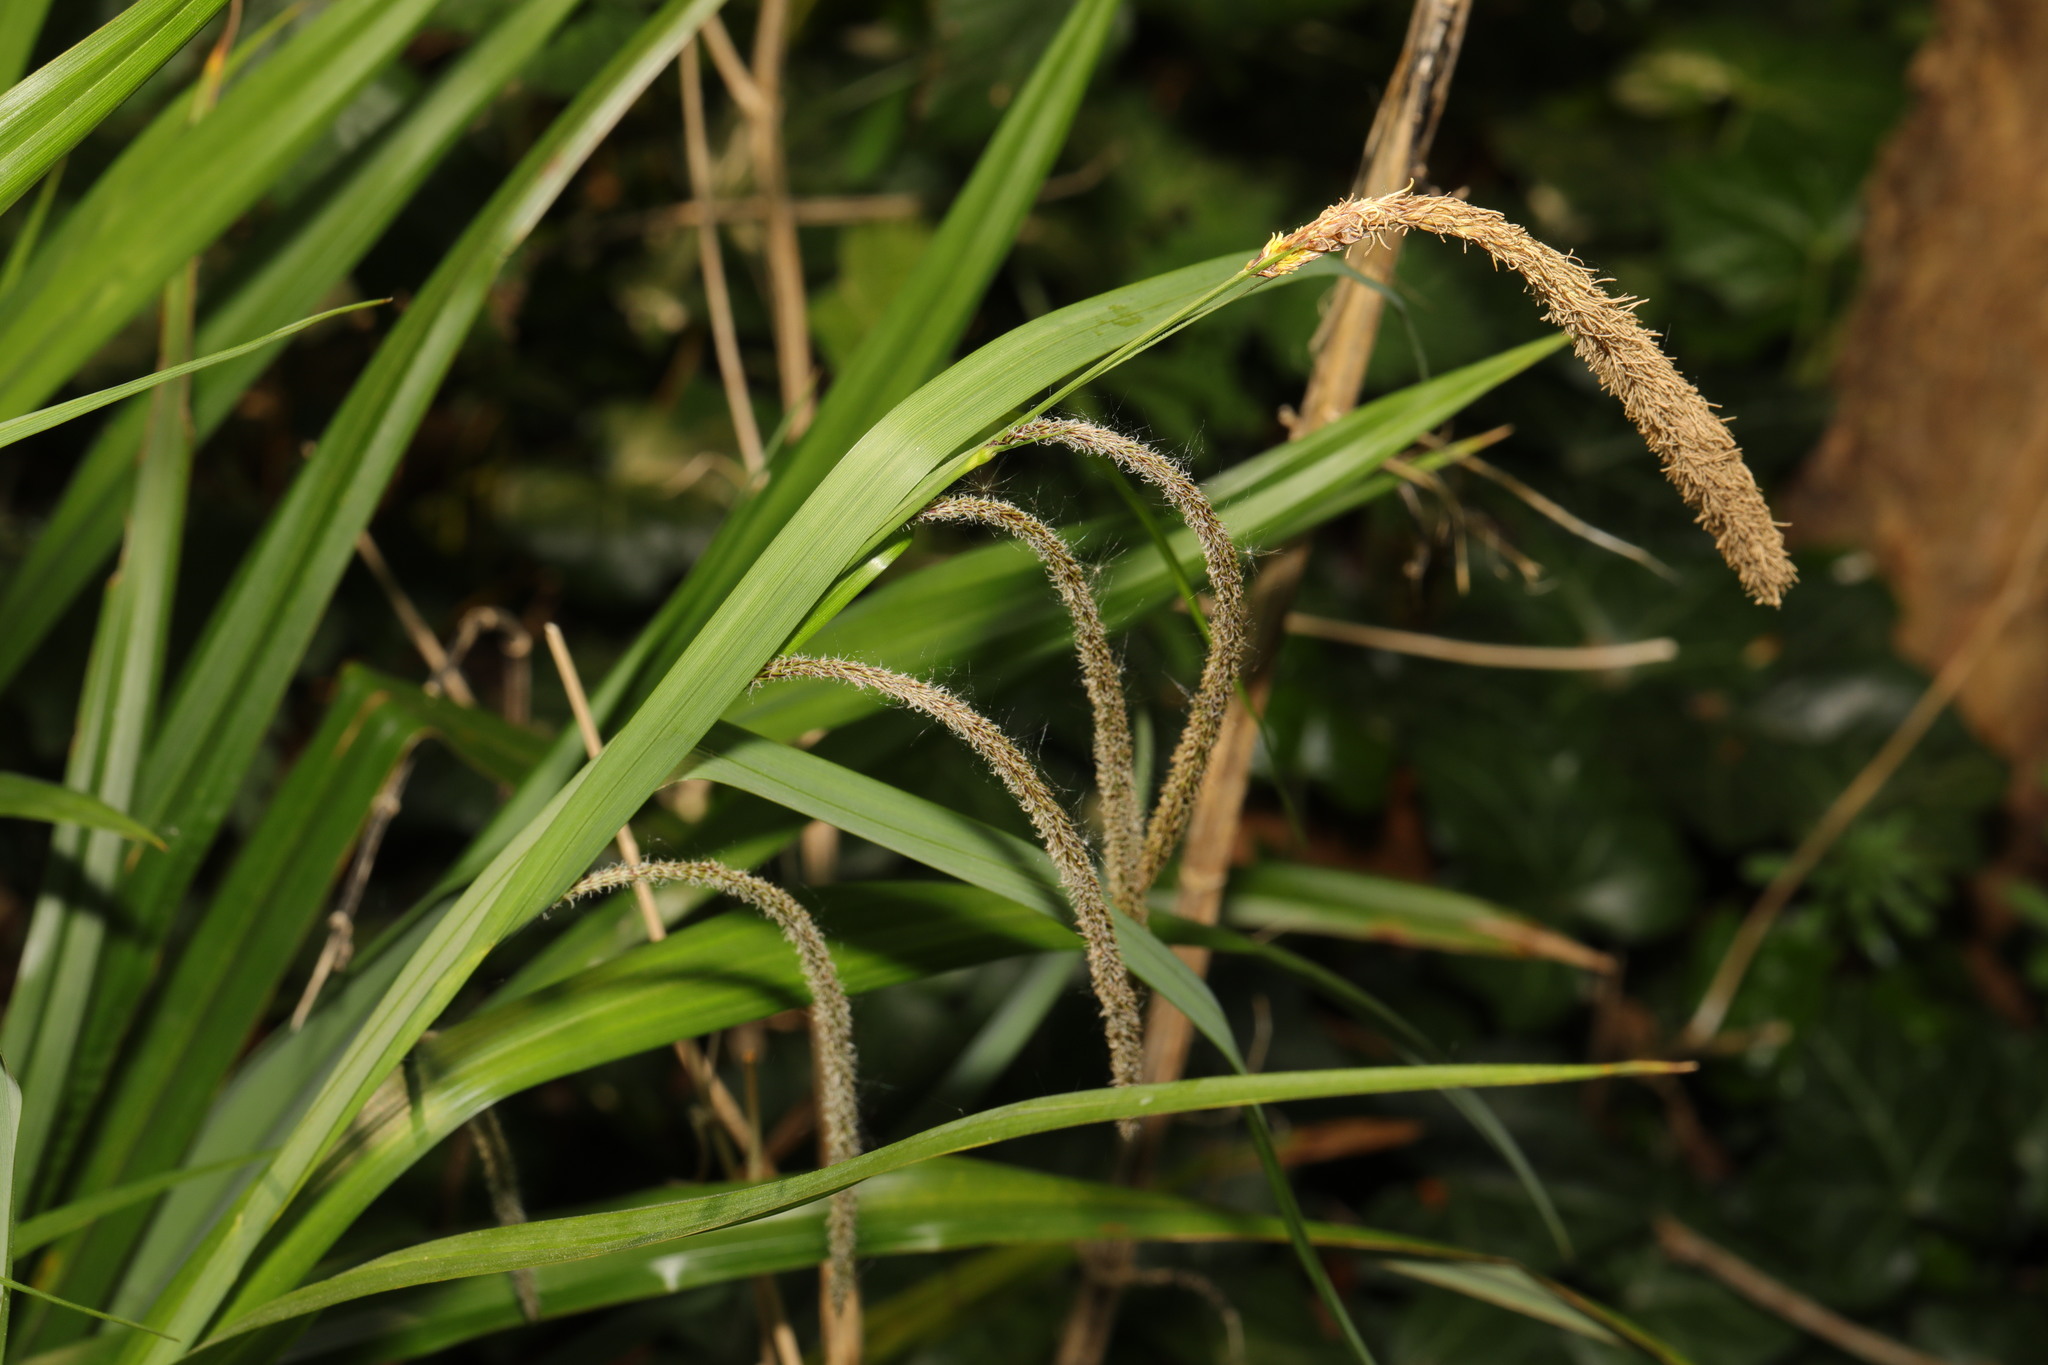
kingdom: Plantae
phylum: Tracheophyta
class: Liliopsida
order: Poales
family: Cyperaceae
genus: Carex
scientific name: Carex pendula
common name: Pendulous sedge
